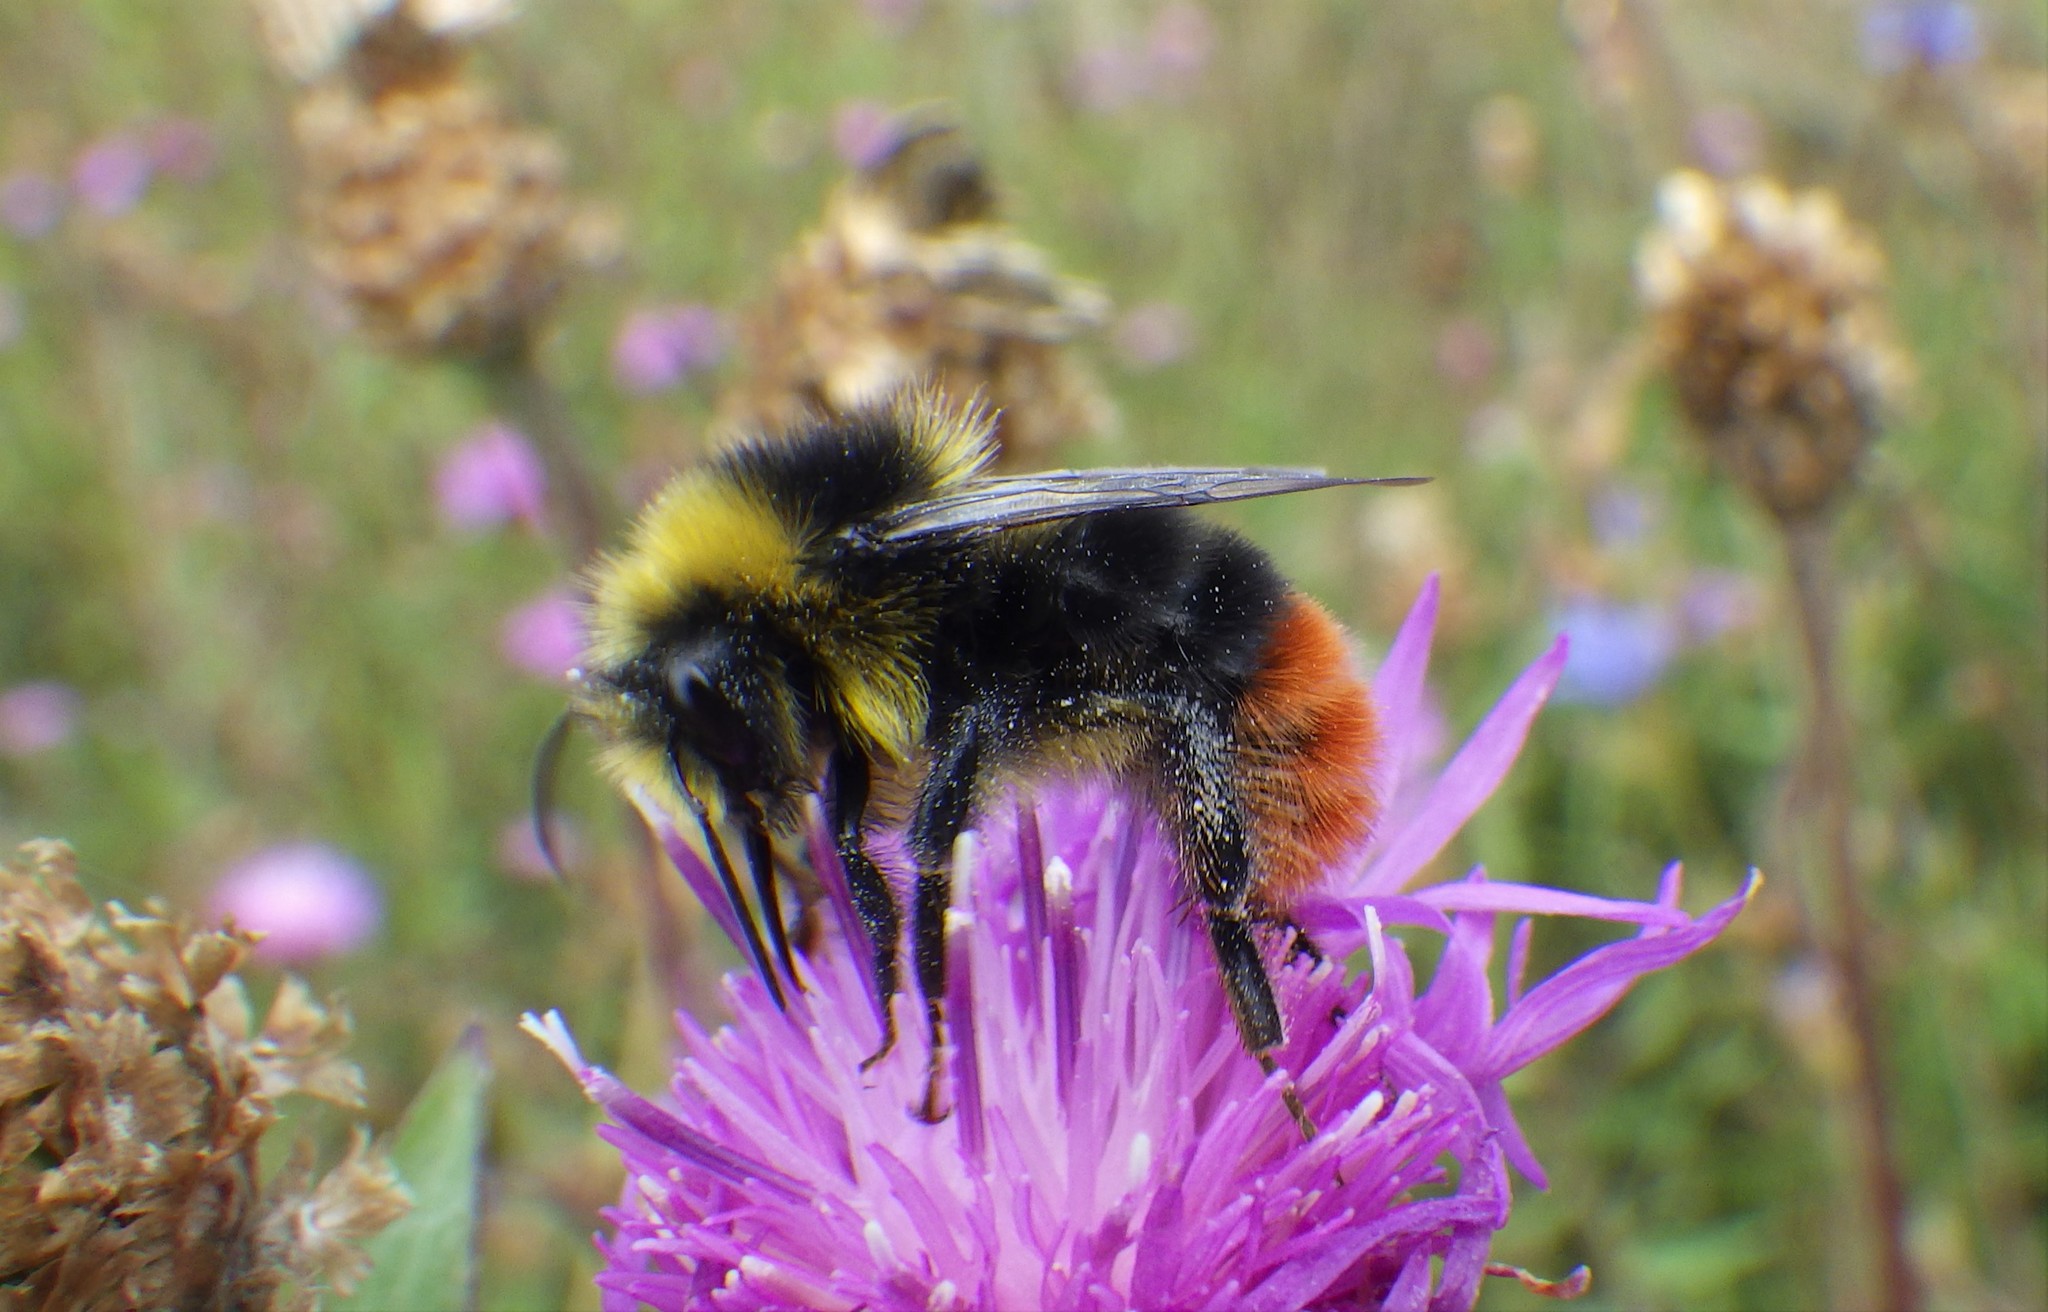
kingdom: Animalia
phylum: Arthropoda
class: Insecta
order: Hymenoptera
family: Apidae
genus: Bombus
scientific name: Bombus lapidarius
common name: Large red-tailed humble-bee
